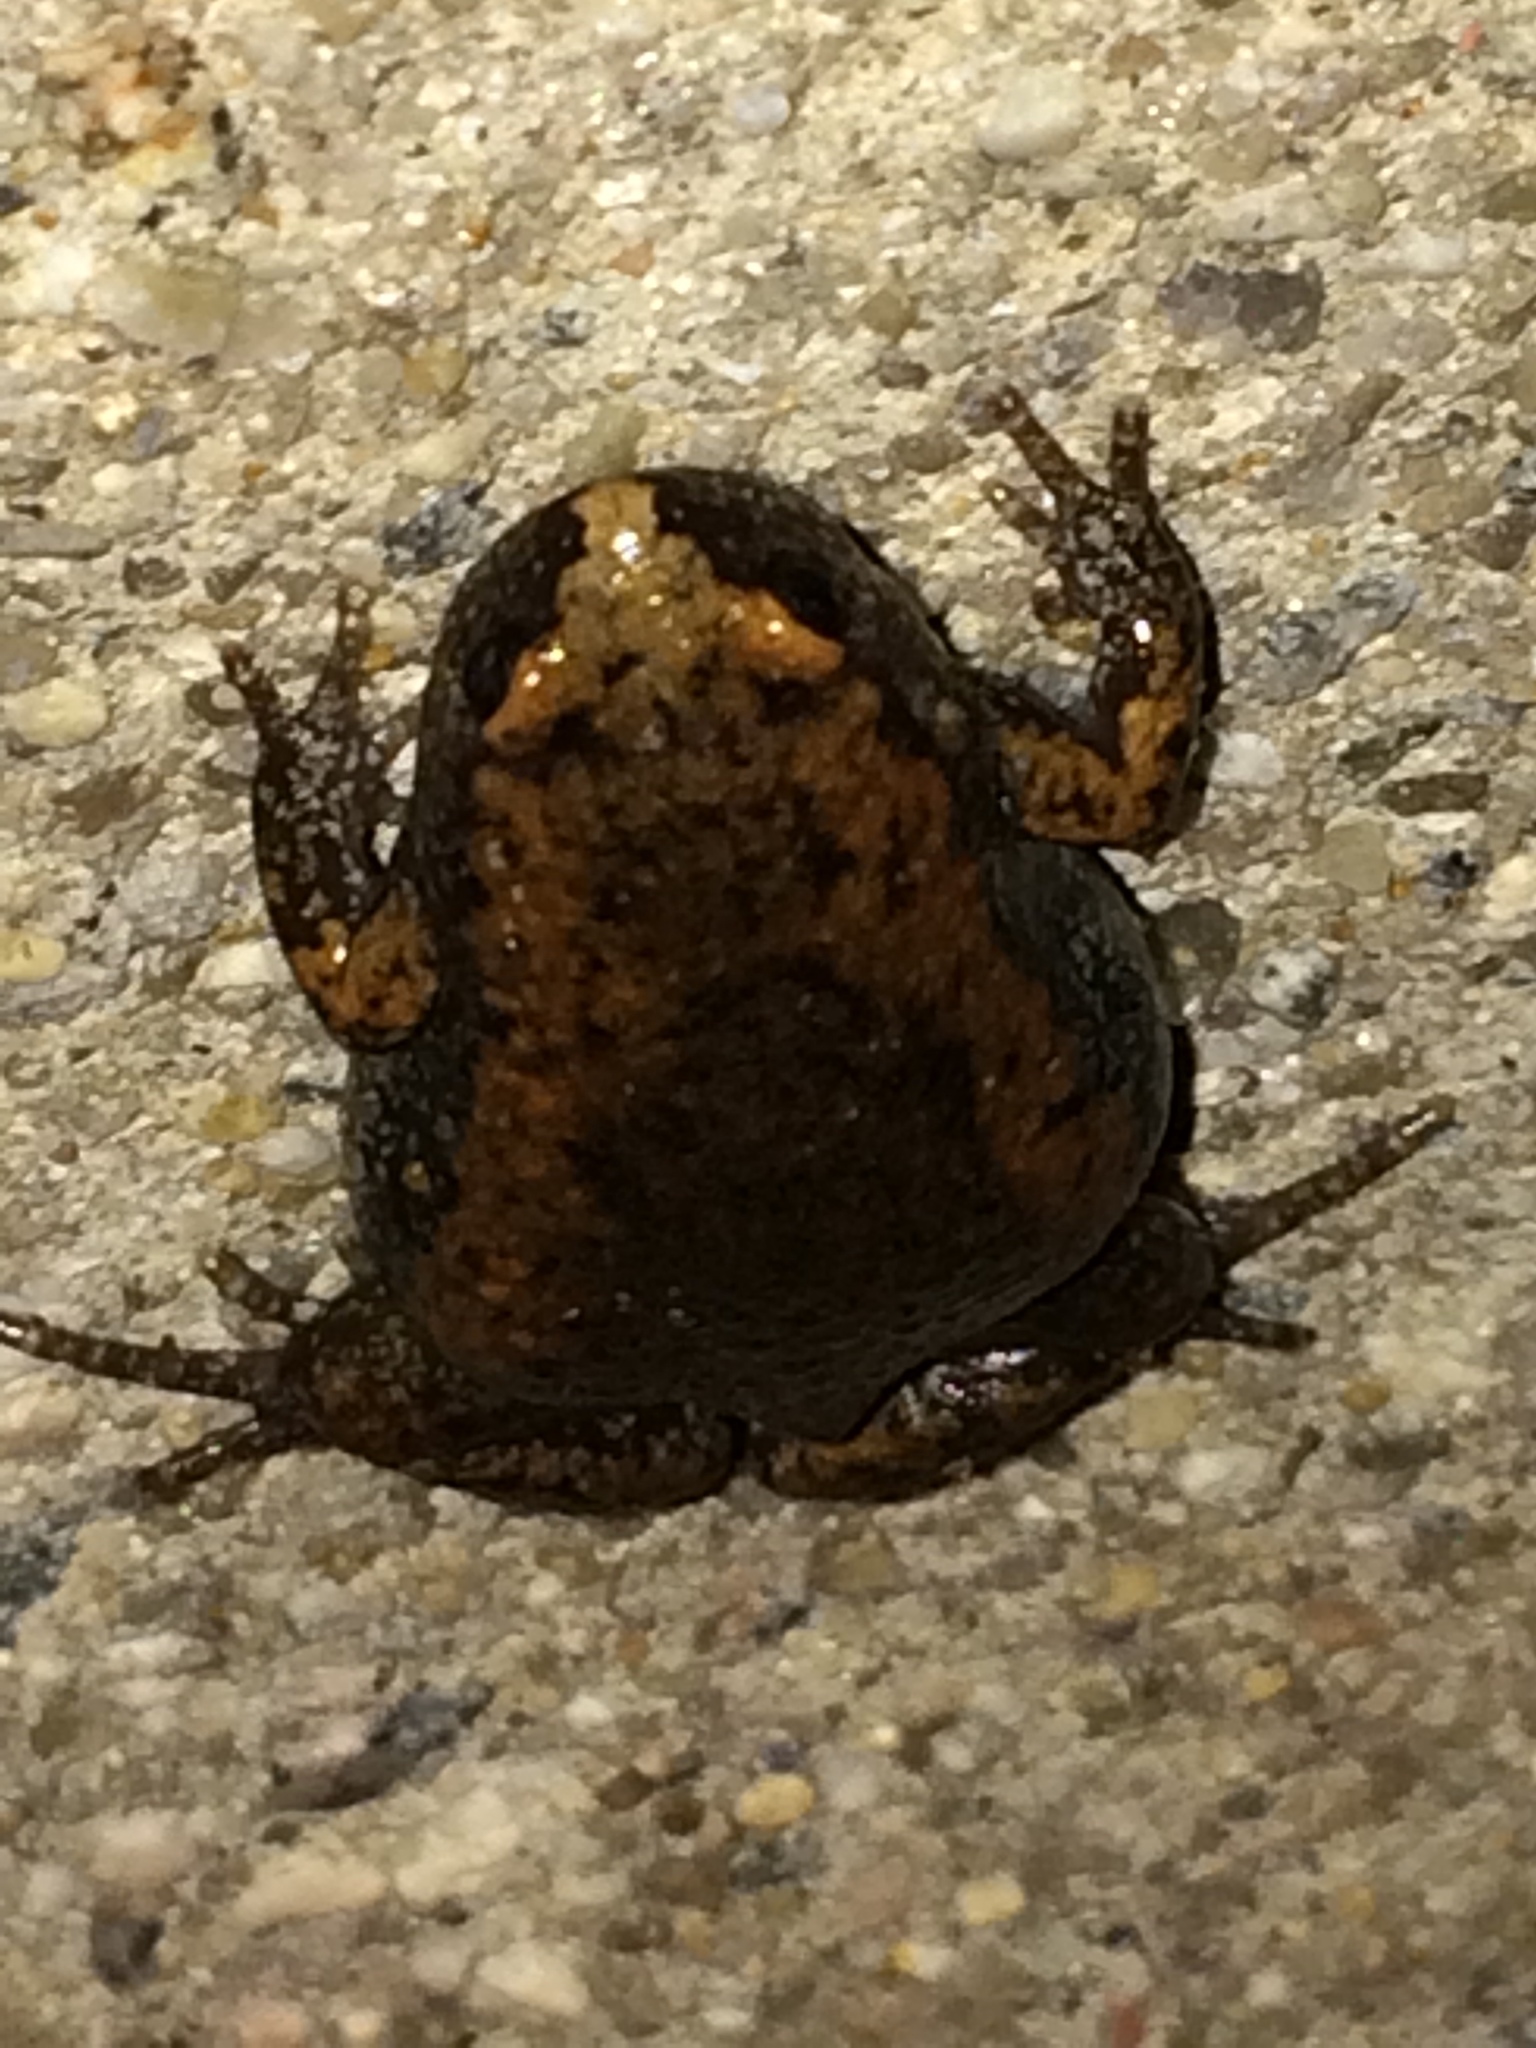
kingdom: Animalia
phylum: Chordata
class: Amphibia
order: Anura
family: Microhylidae
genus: Gastrophryne
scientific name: Gastrophryne carolinensis
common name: Eastern narrowmouth toad
